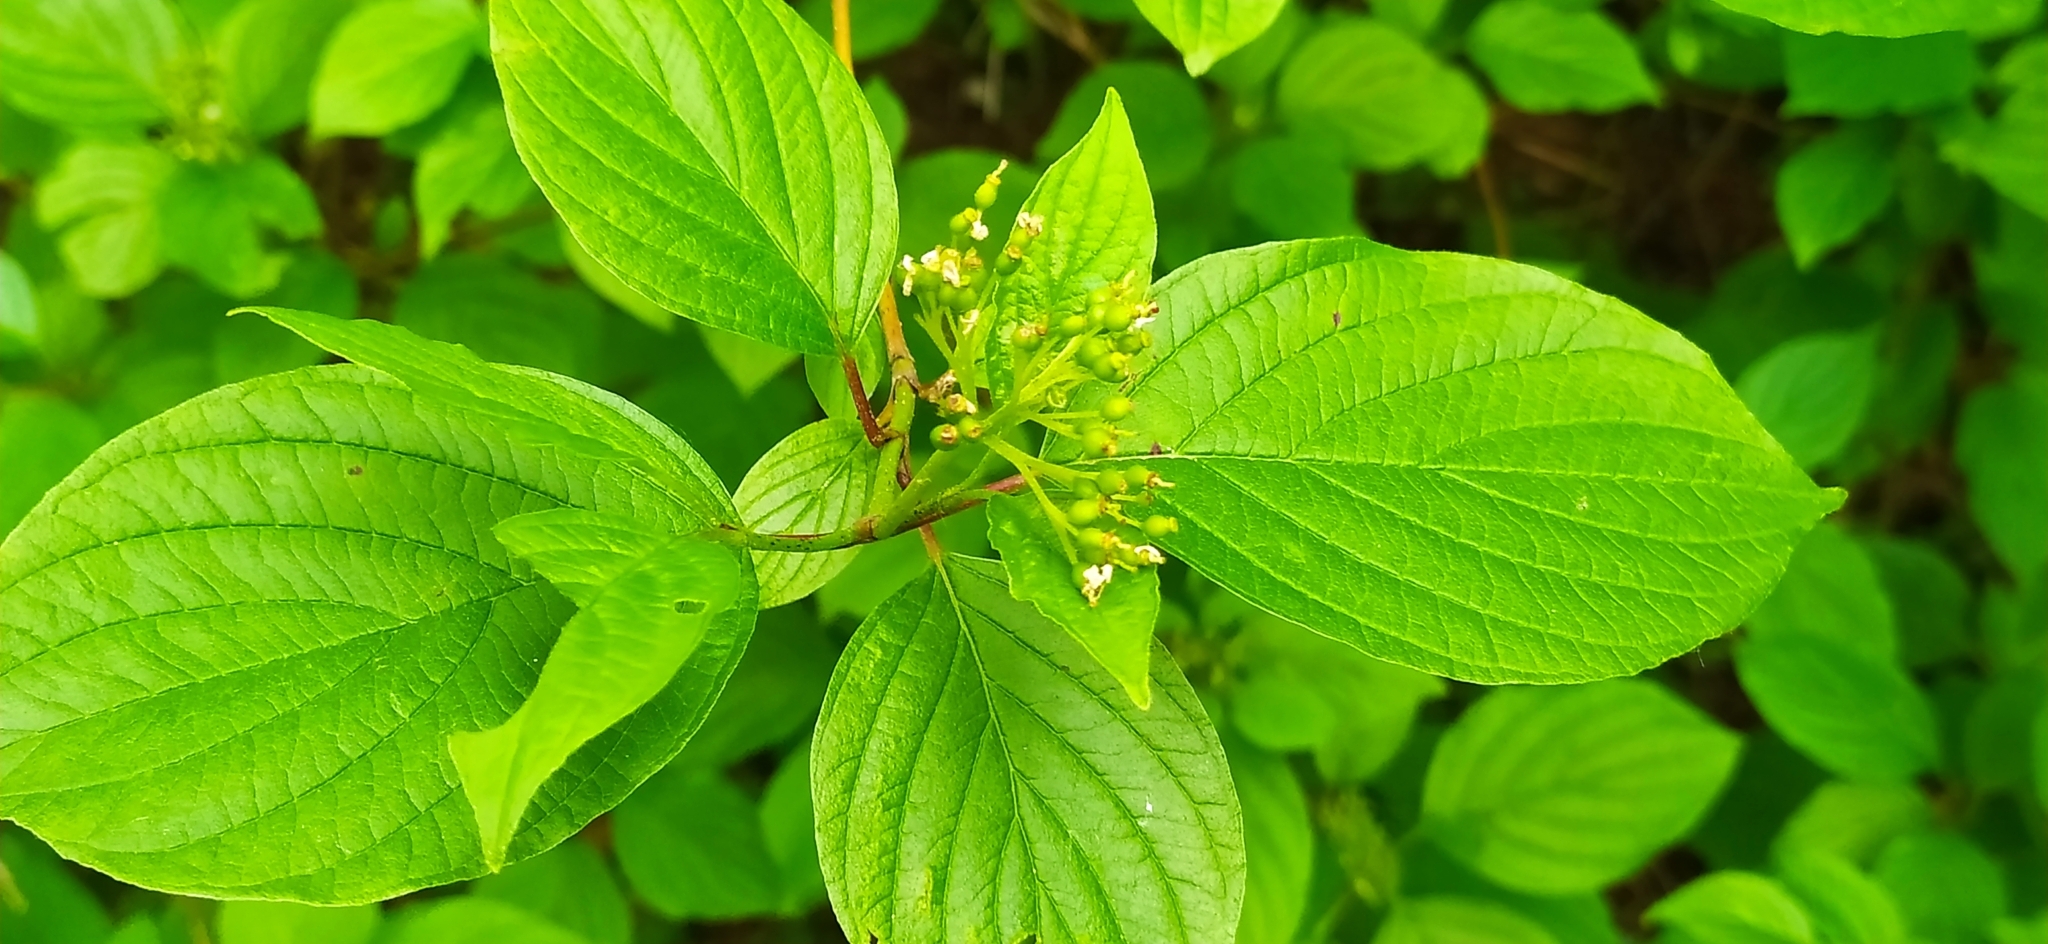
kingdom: Plantae
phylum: Tracheophyta
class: Magnoliopsida
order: Cornales
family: Cornaceae
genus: Cornus
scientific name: Cornus alba
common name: White dogwood
